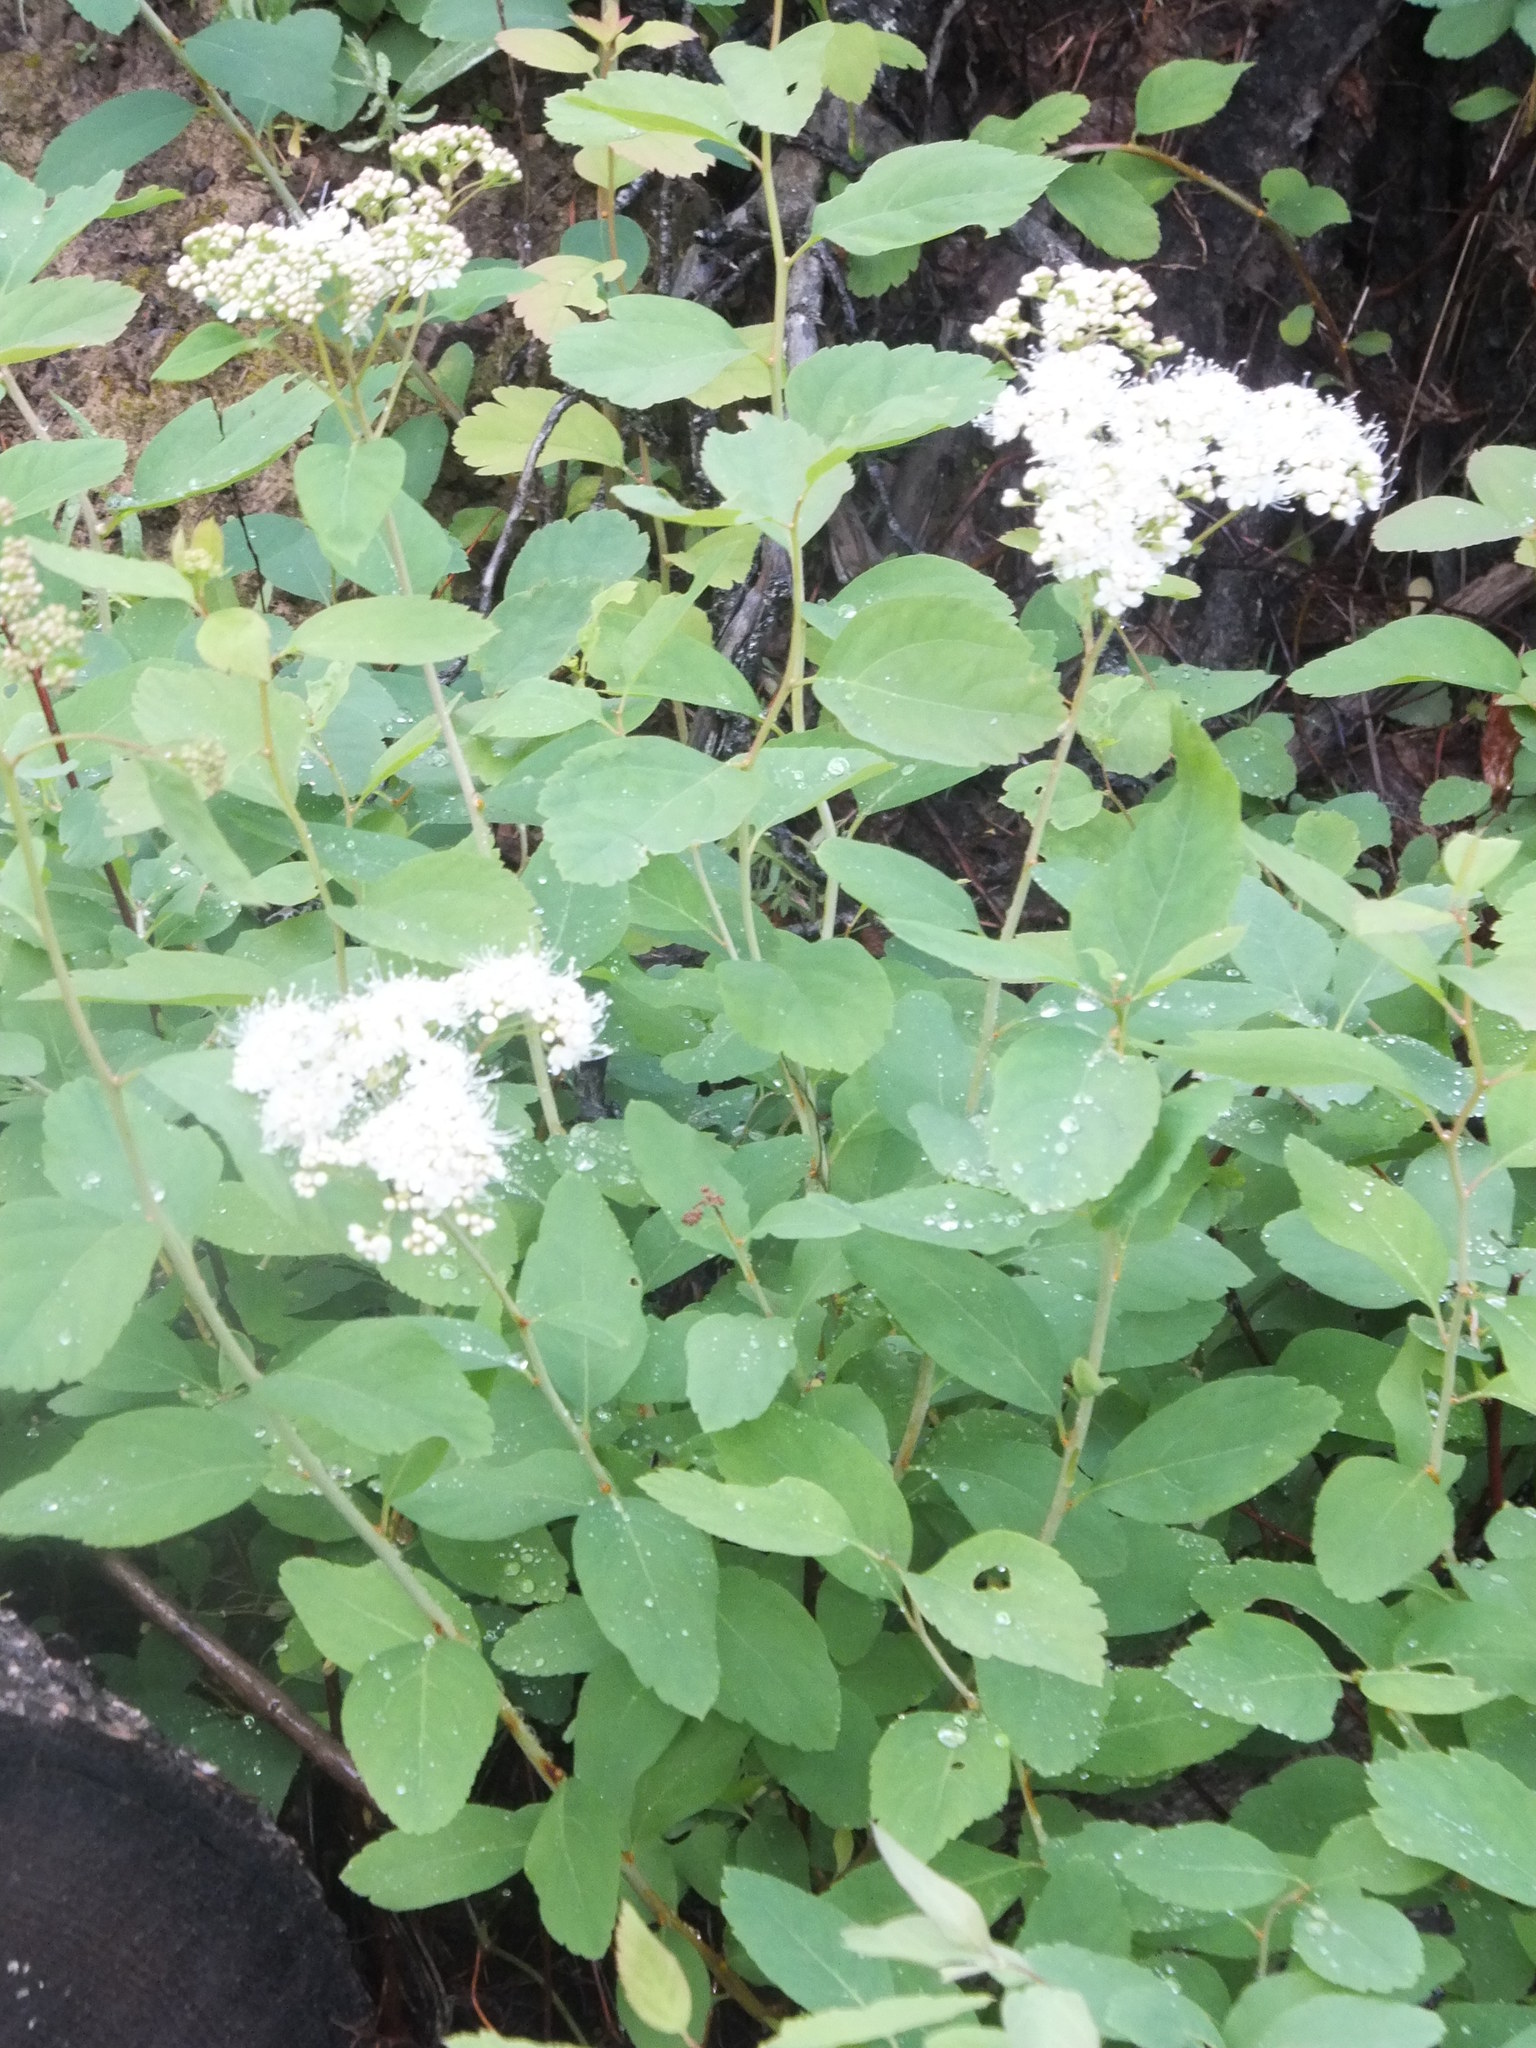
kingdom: Plantae
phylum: Tracheophyta
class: Magnoliopsida
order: Rosales
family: Rosaceae
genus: Spiraea
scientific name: Spiraea lucida
